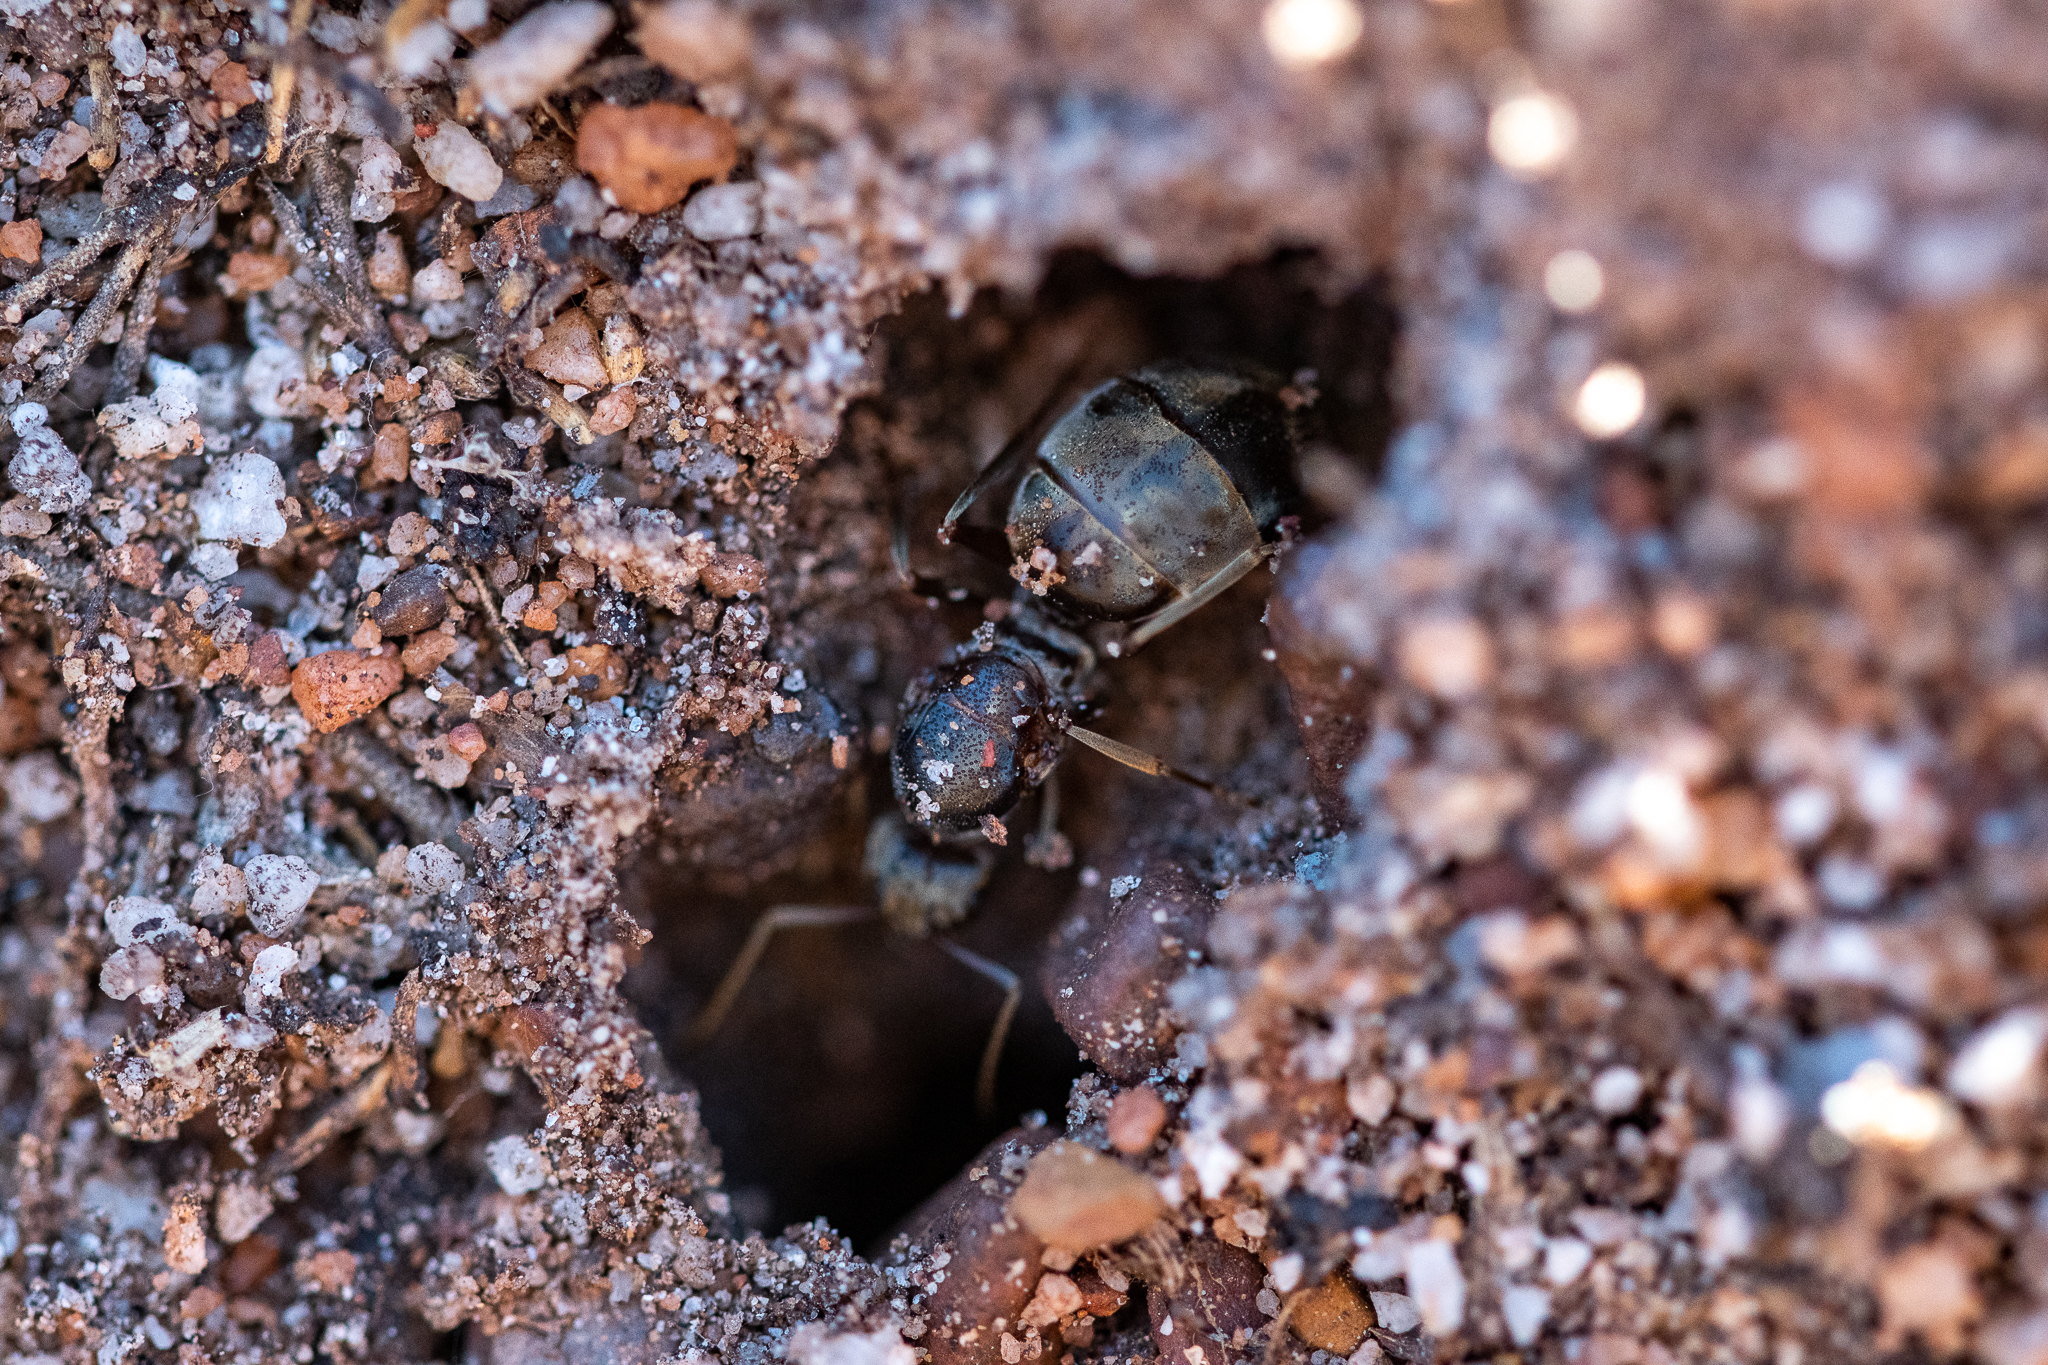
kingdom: Animalia
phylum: Arthropoda
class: Insecta
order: Hymenoptera
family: Formicidae
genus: Anoplolepis
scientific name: Anoplolepis steingroeveri
